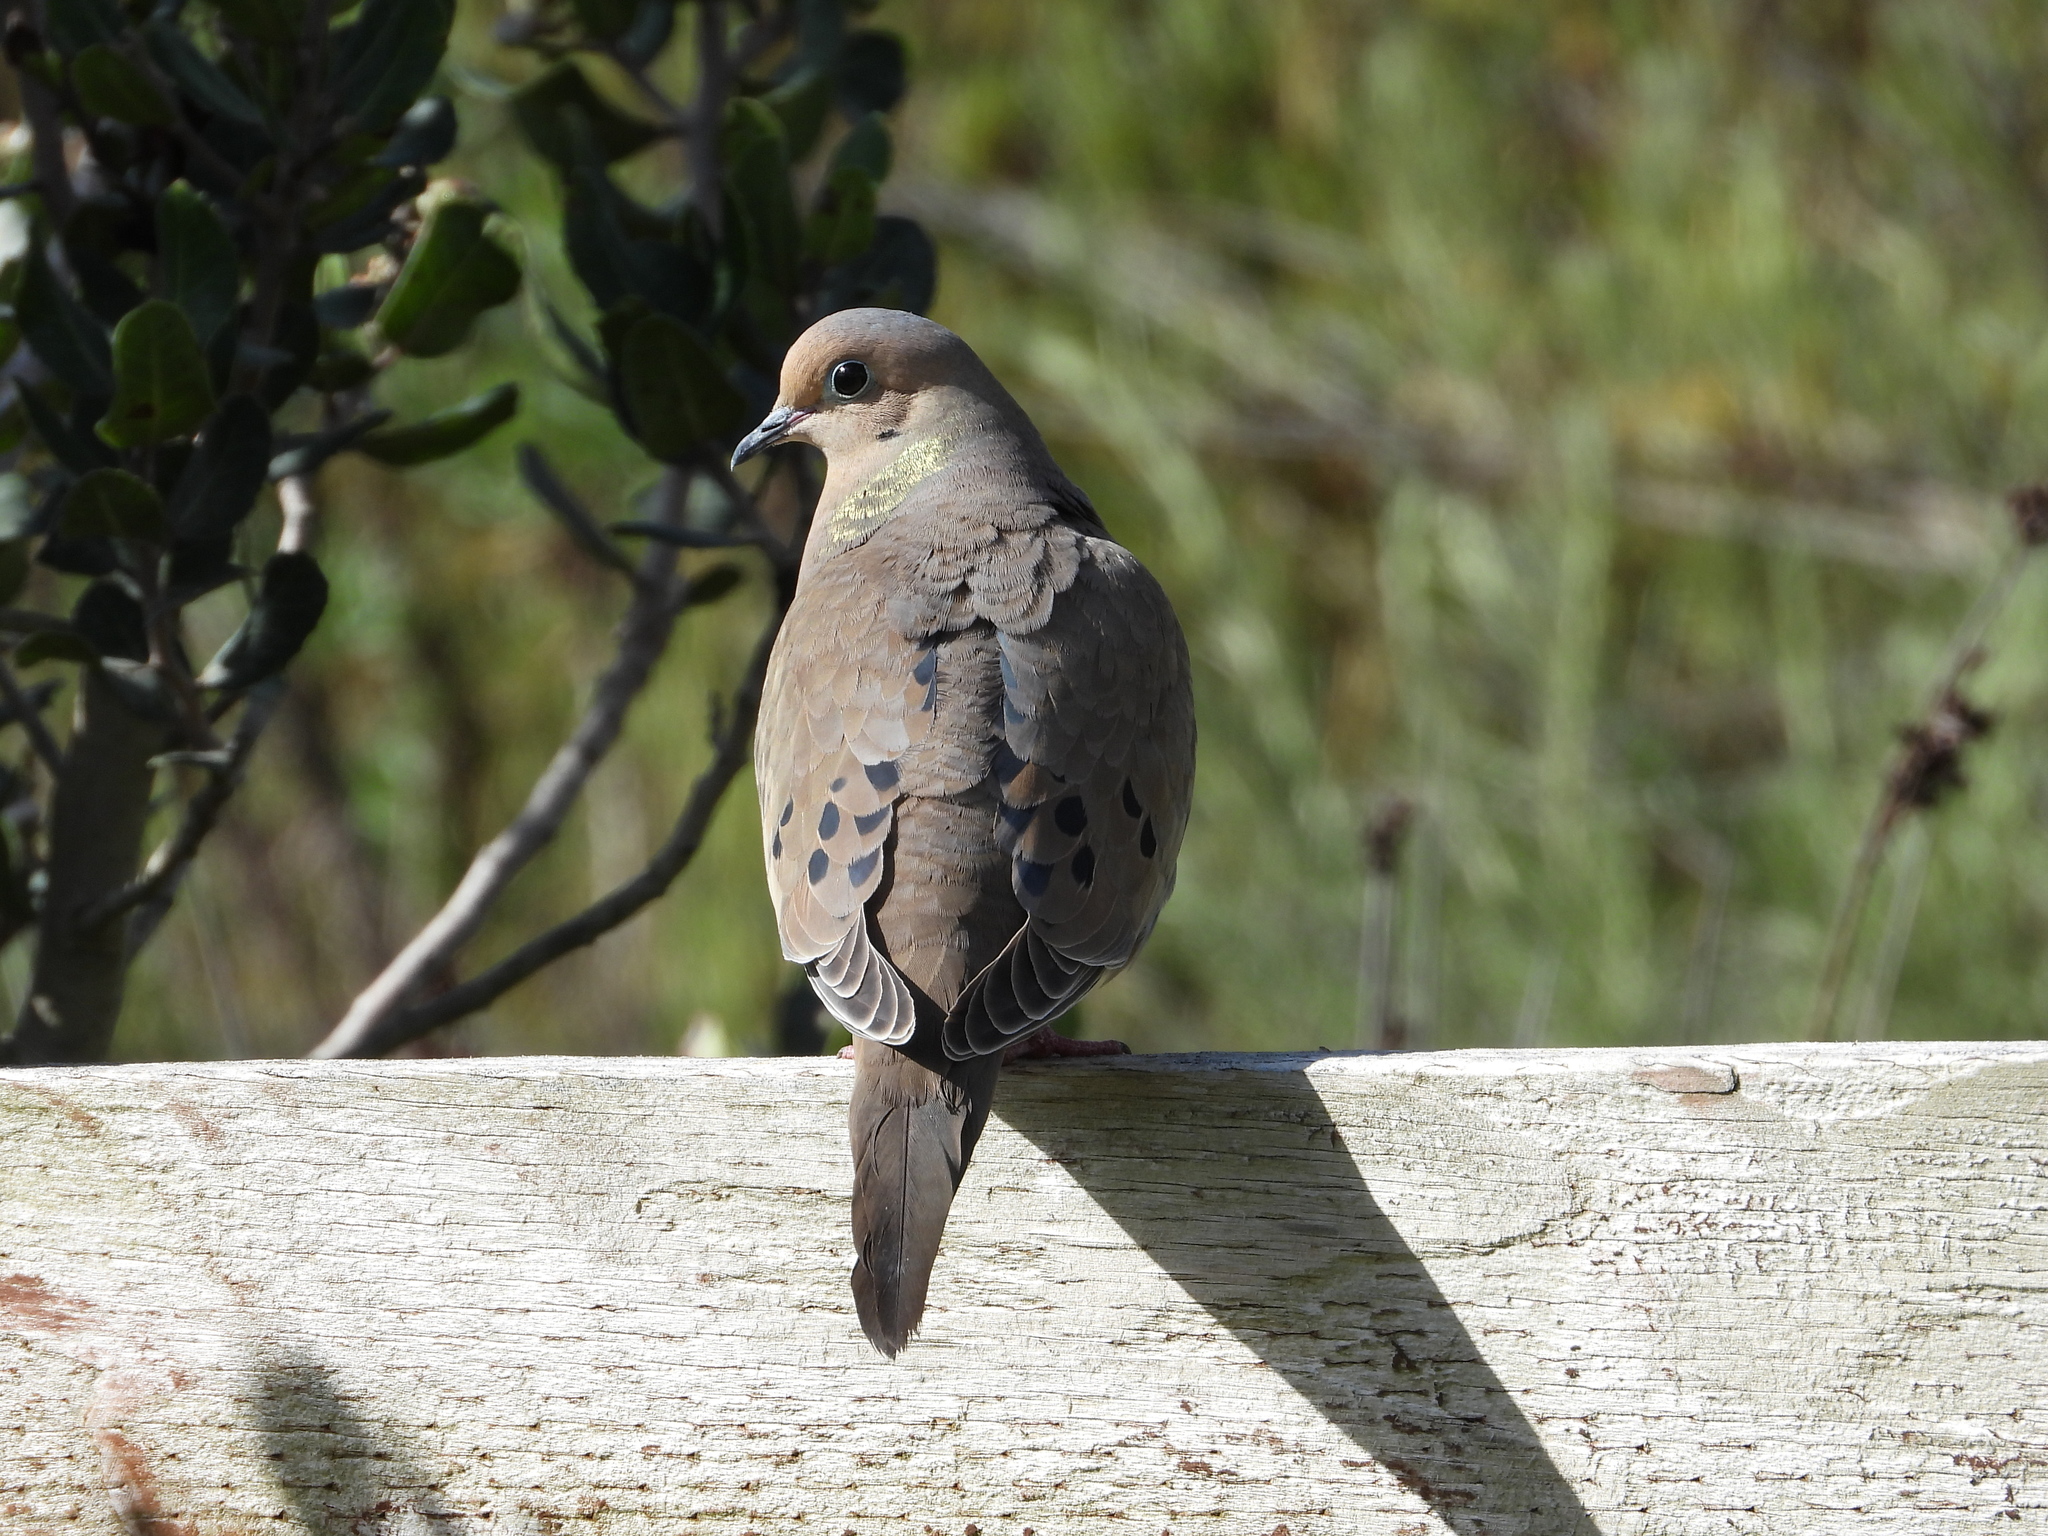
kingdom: Animalia
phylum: Chordata
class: Aves
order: Columbiformes
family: Columbidae
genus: Zenaida
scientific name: Zenaida macroura
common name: Mourning dove
